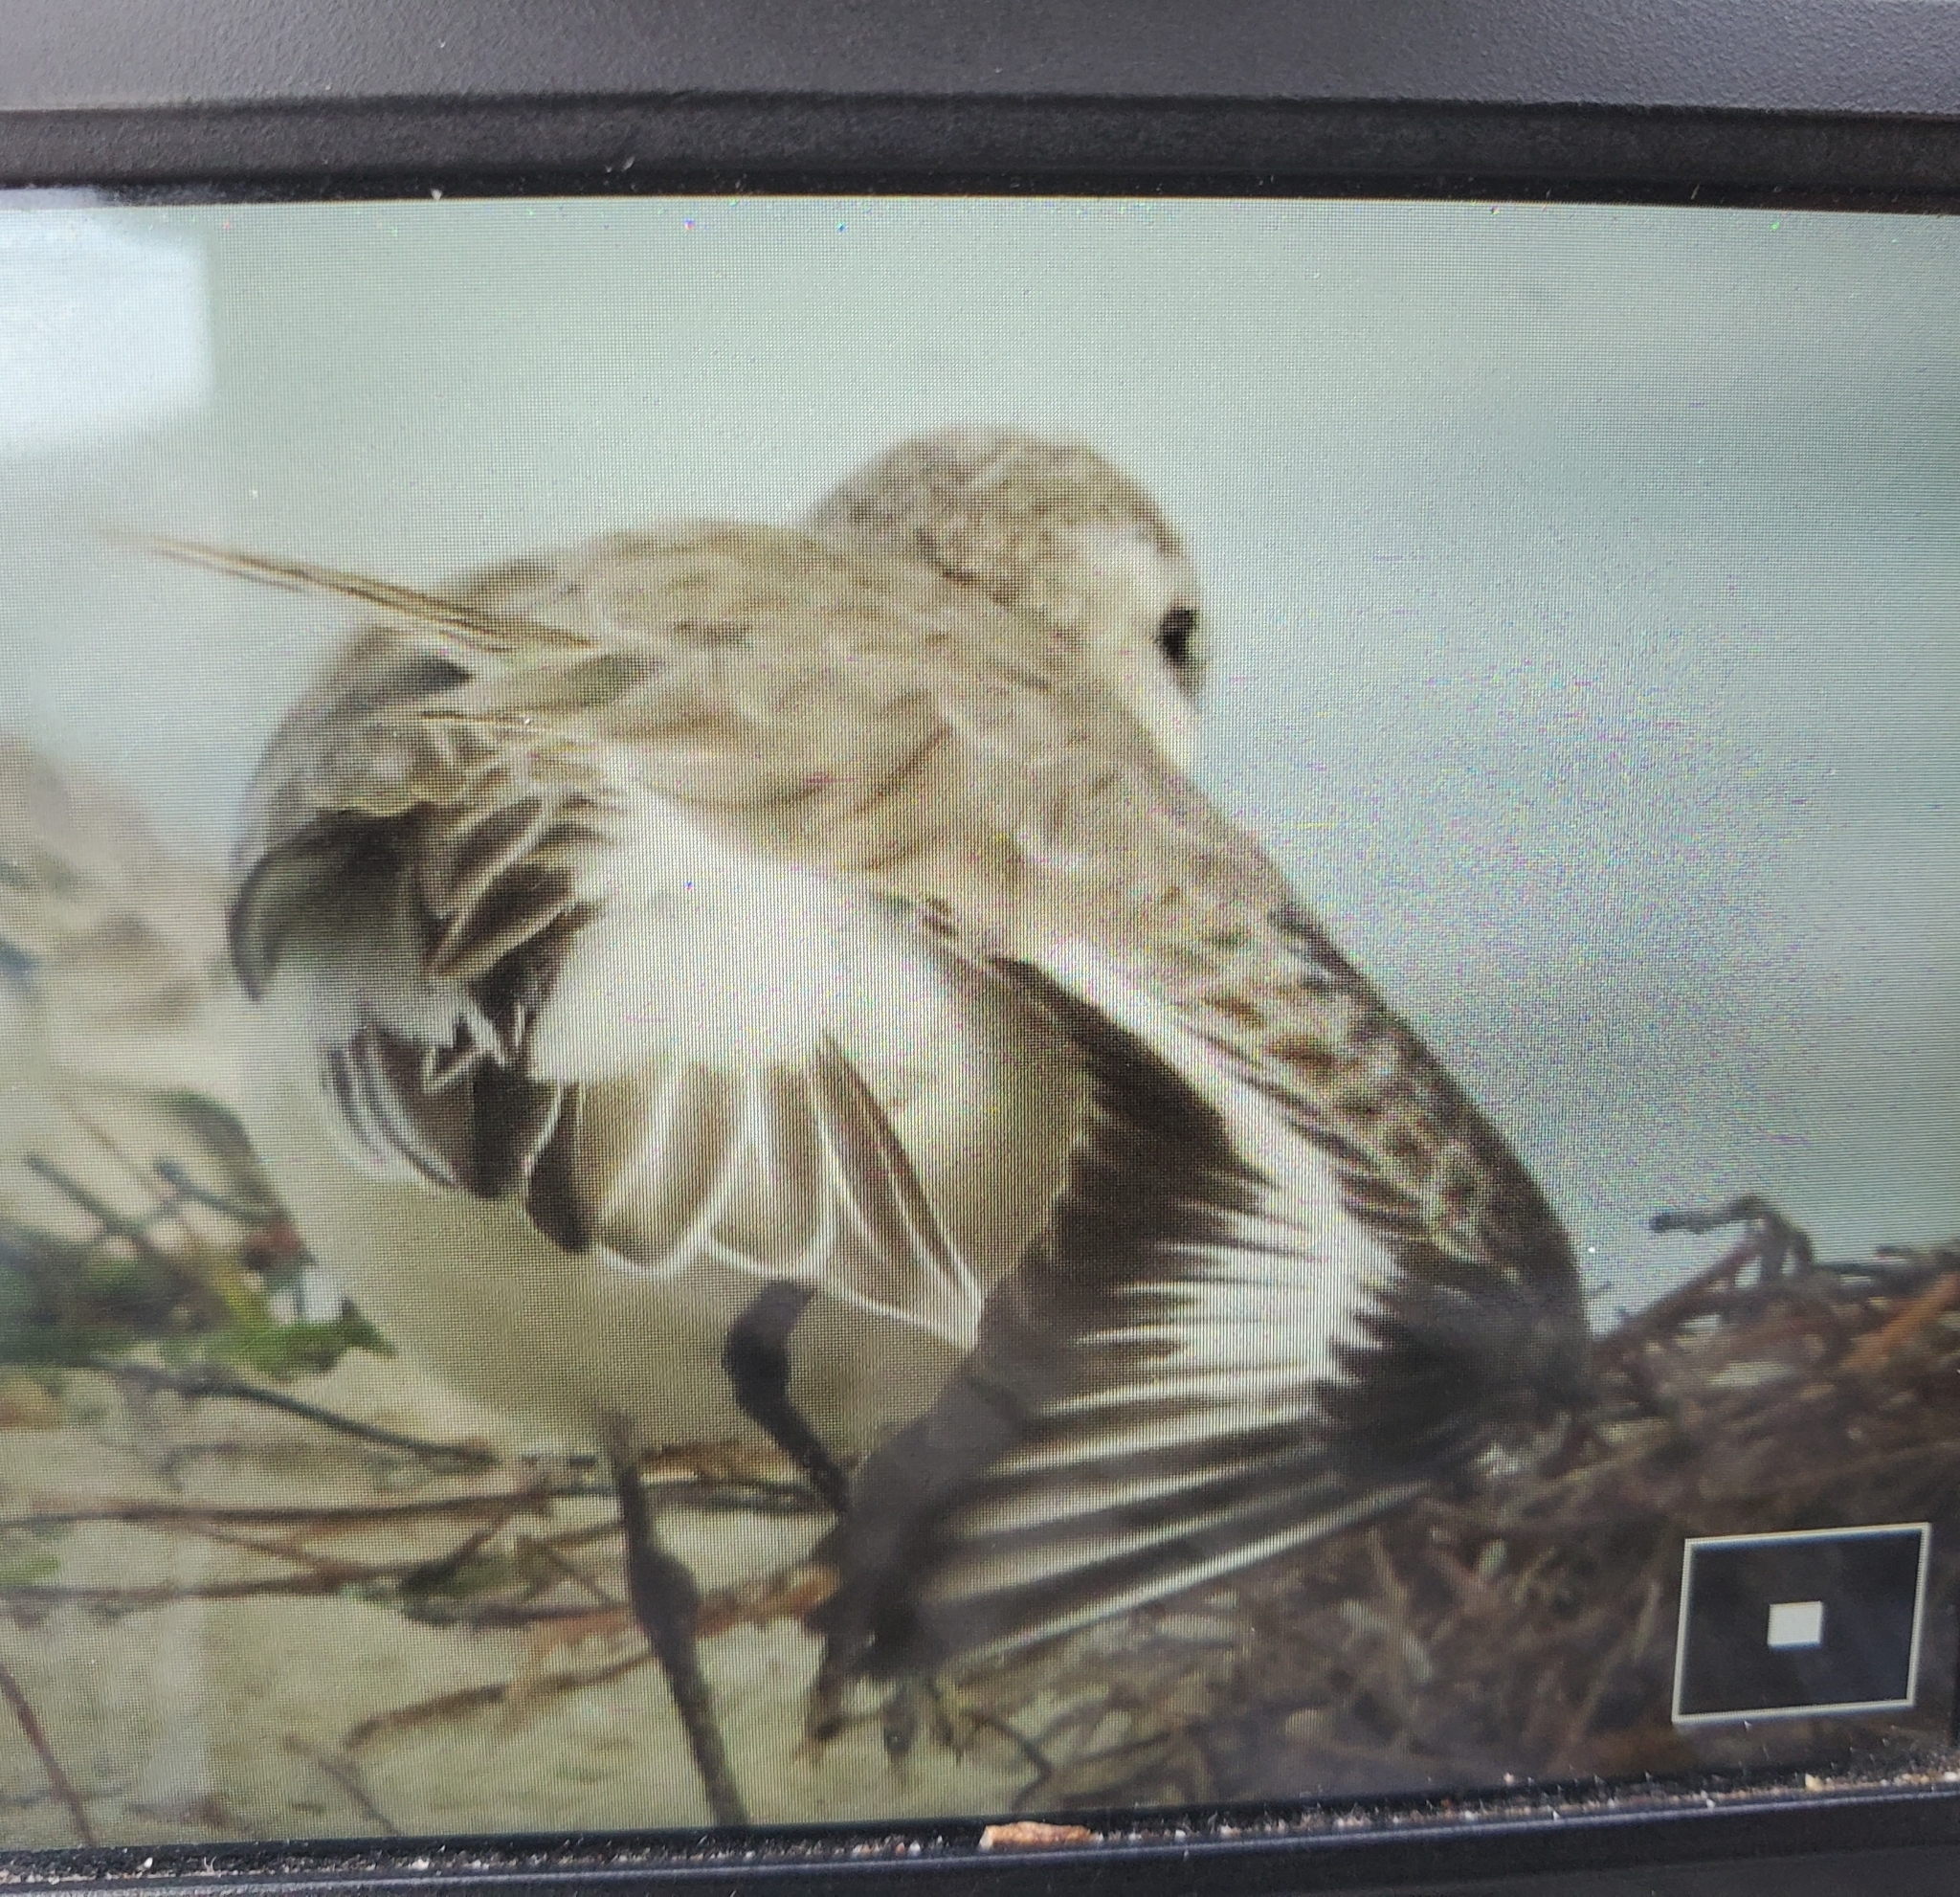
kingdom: Animalia
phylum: Chordata
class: Aves
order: Charadriiformes
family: Scolopacidae
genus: Calidris
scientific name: Calidris alba
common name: Sanderling
